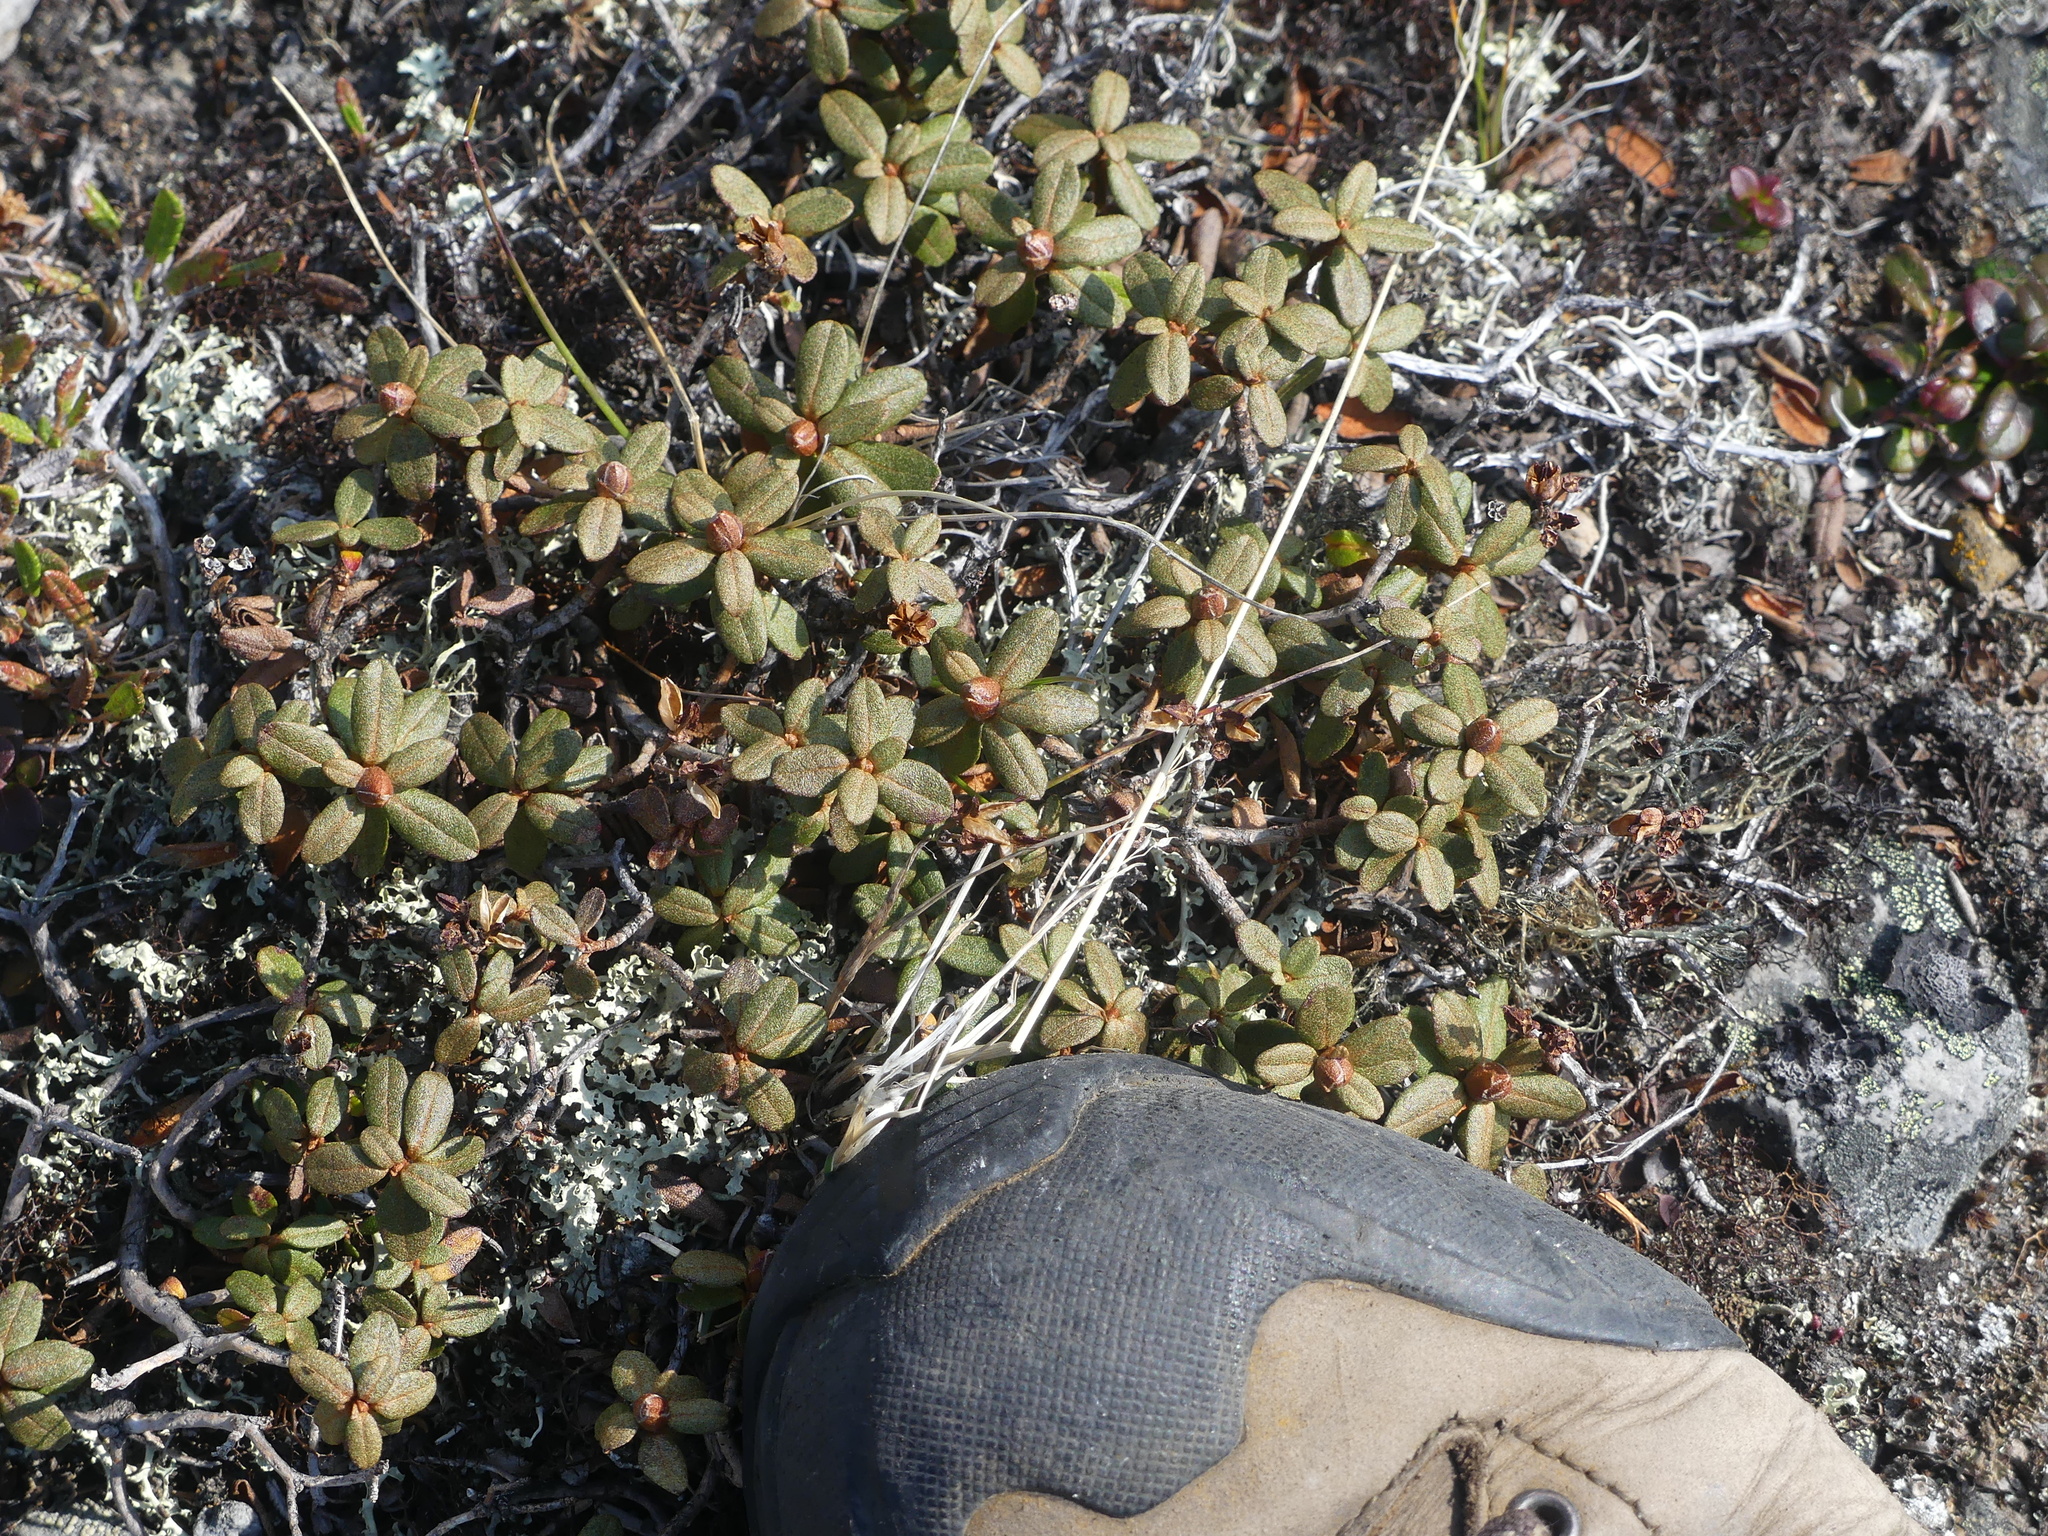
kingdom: Plantae
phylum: Tracheophyta
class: Magnoliopsida
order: Ericales
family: Ericaceae
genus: Rhododendron
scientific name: Rhododendron lapponicum
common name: Lapland rhododendron
